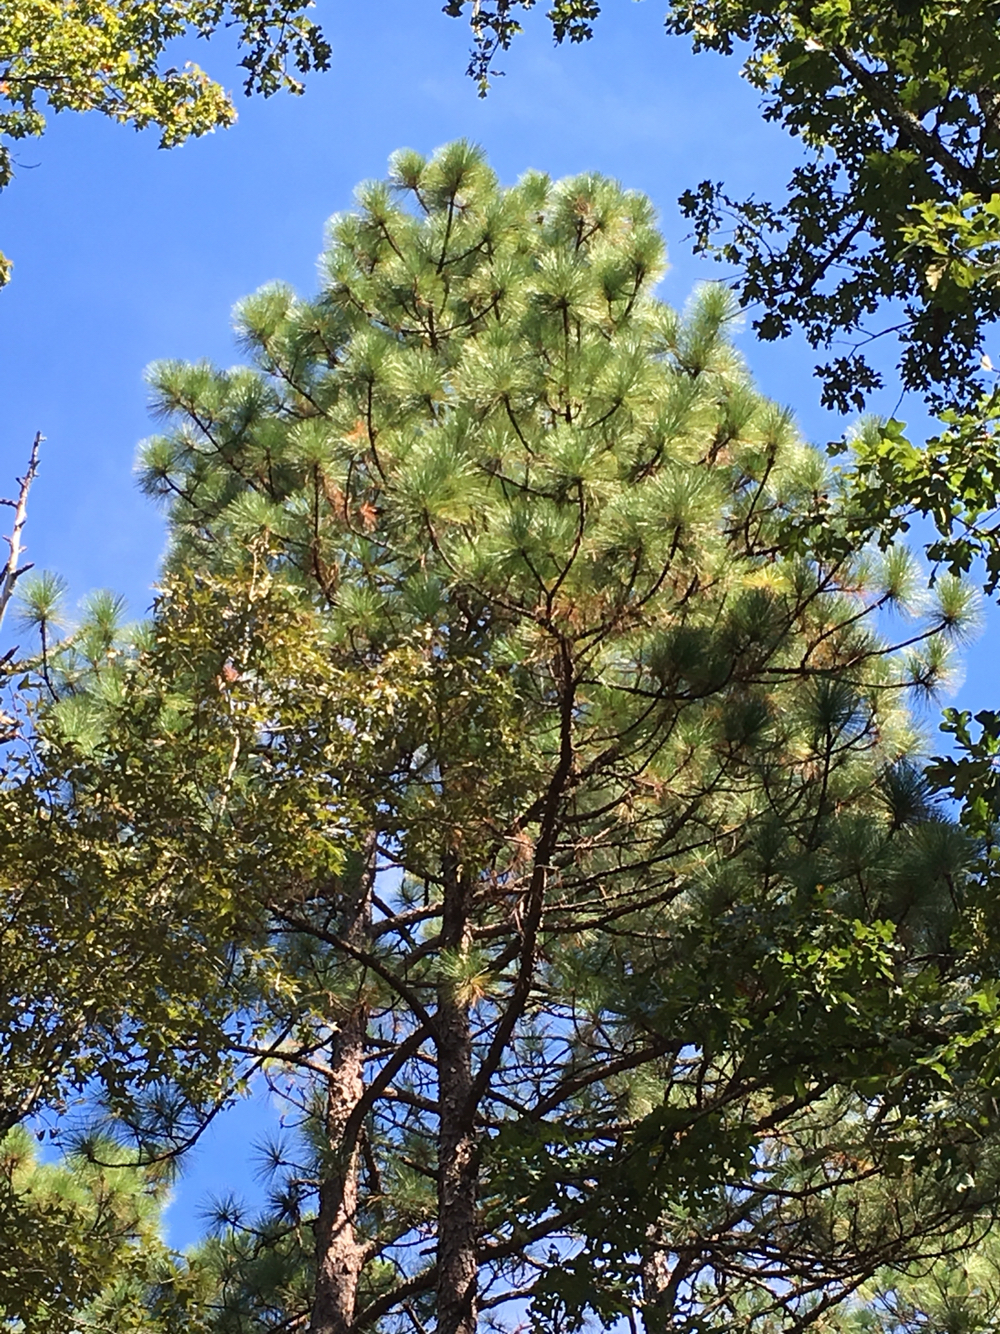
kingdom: Plantae
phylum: Tracheophyta
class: Pinopsida
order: Pinales
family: Pinaceae
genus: Pinus
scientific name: Pinus palustris
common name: Longleaf pine
